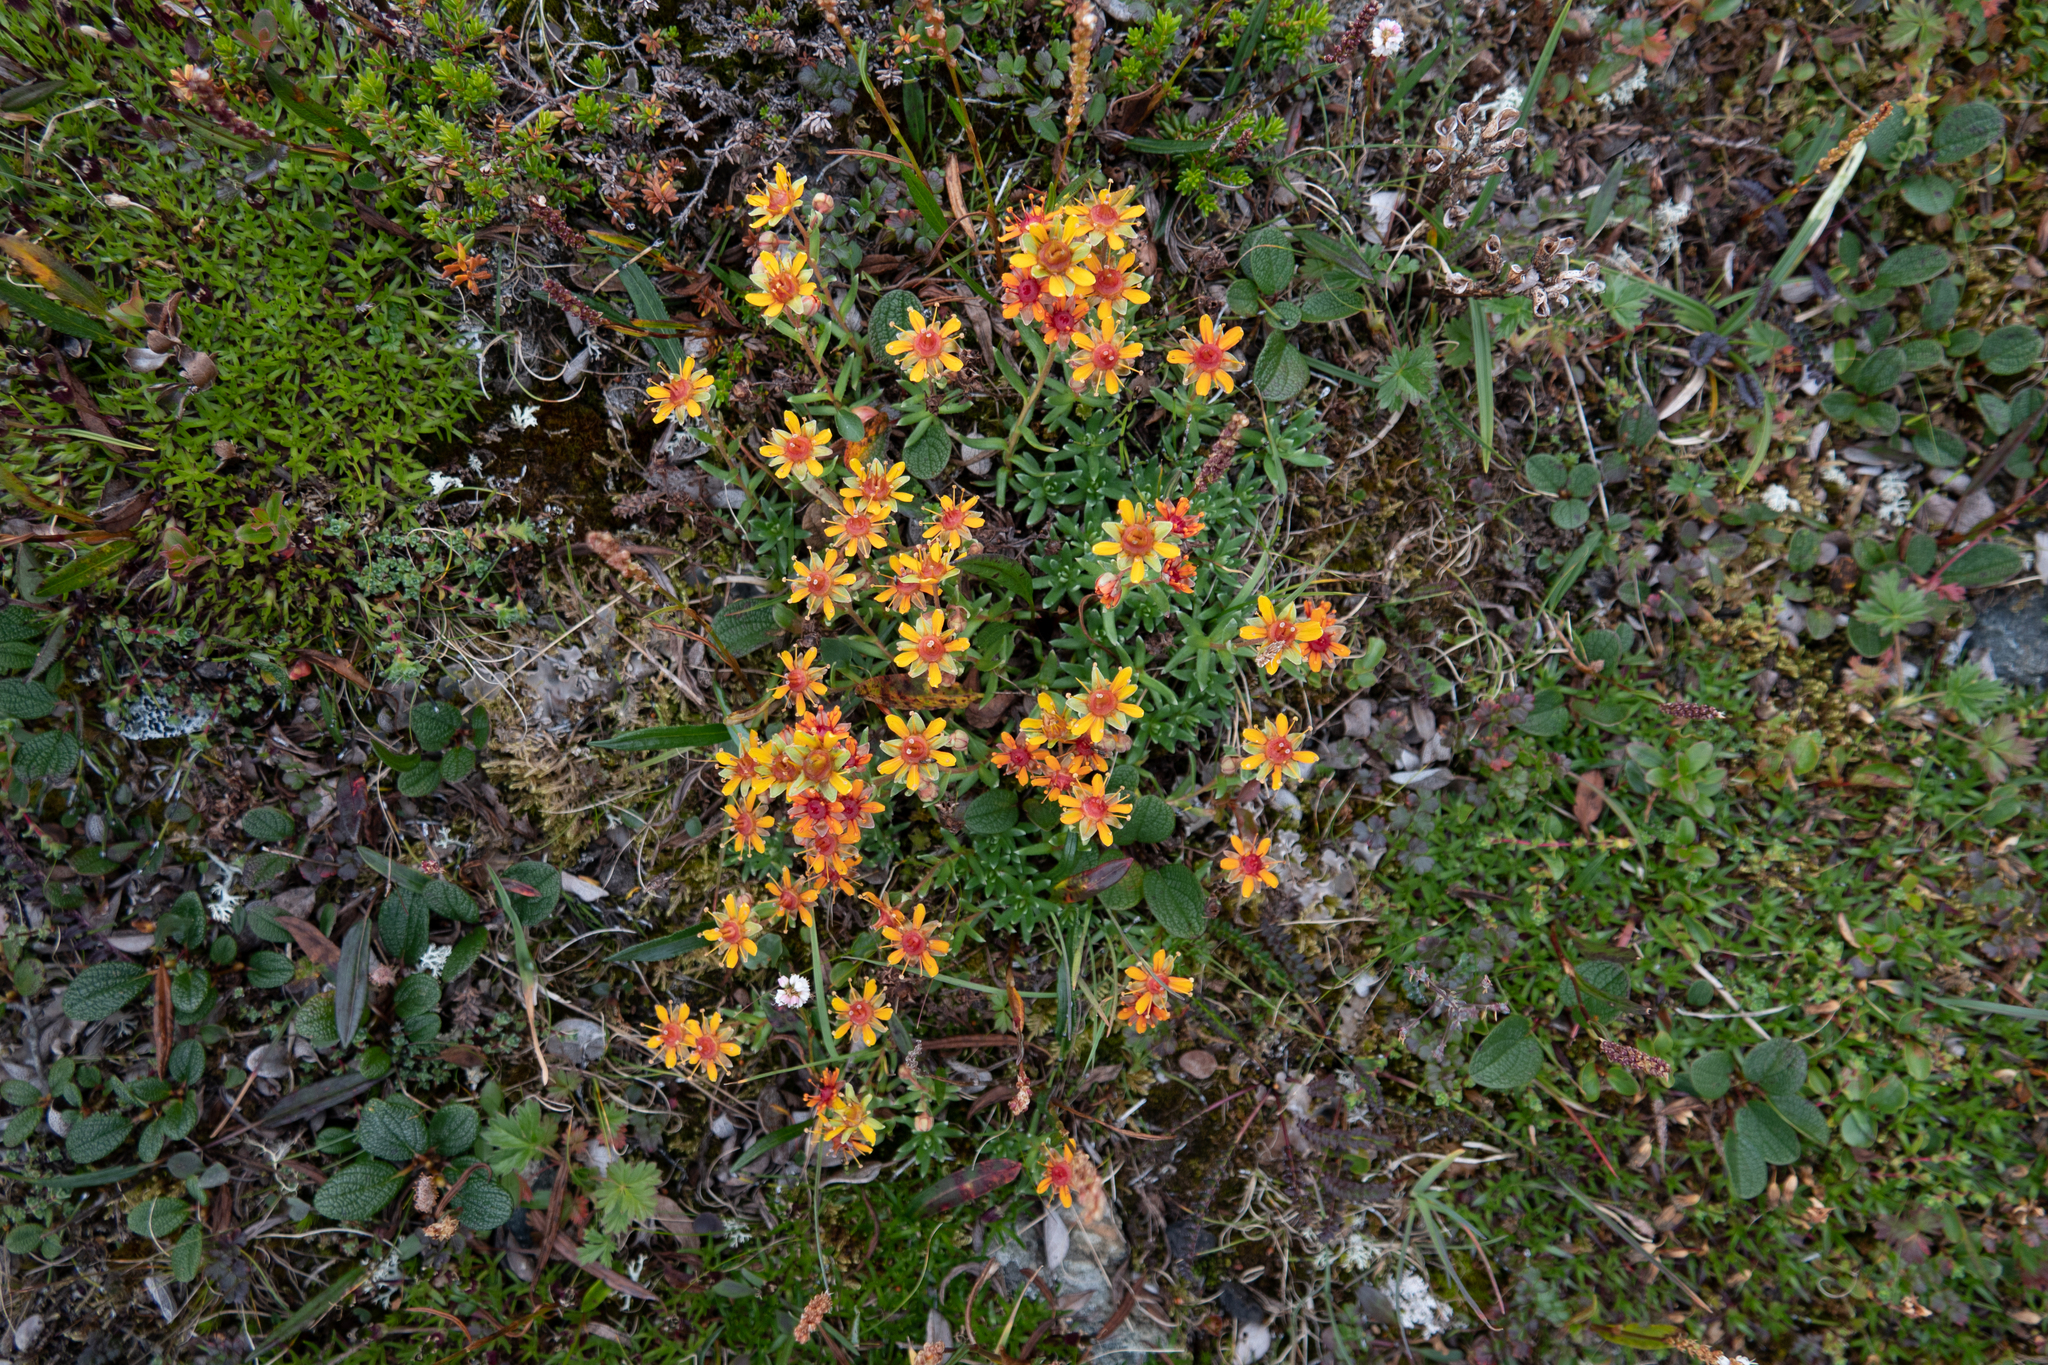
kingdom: Plantae
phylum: Tracheophyta
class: Magnoliopsida
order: Saxifragales
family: Saxifragaceae
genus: Saxifraga
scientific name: Saxifraga aizoides
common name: Yellow mountain saxifrage
